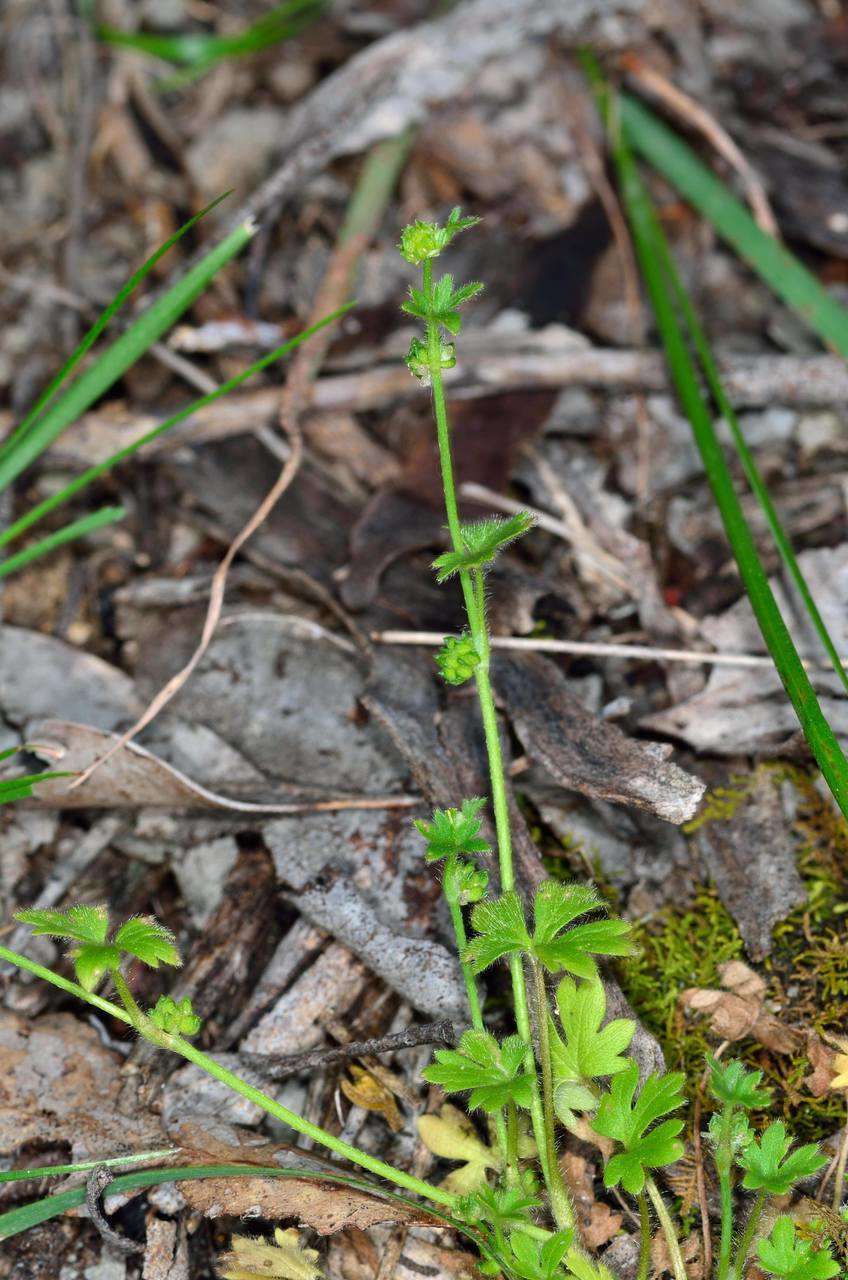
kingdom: Plantae
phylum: Tracheophyta
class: Magnoliopsida
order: Ranunculales
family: Ranunculaceae
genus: Ranunculus
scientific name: Ranunculus sessiliflorus
